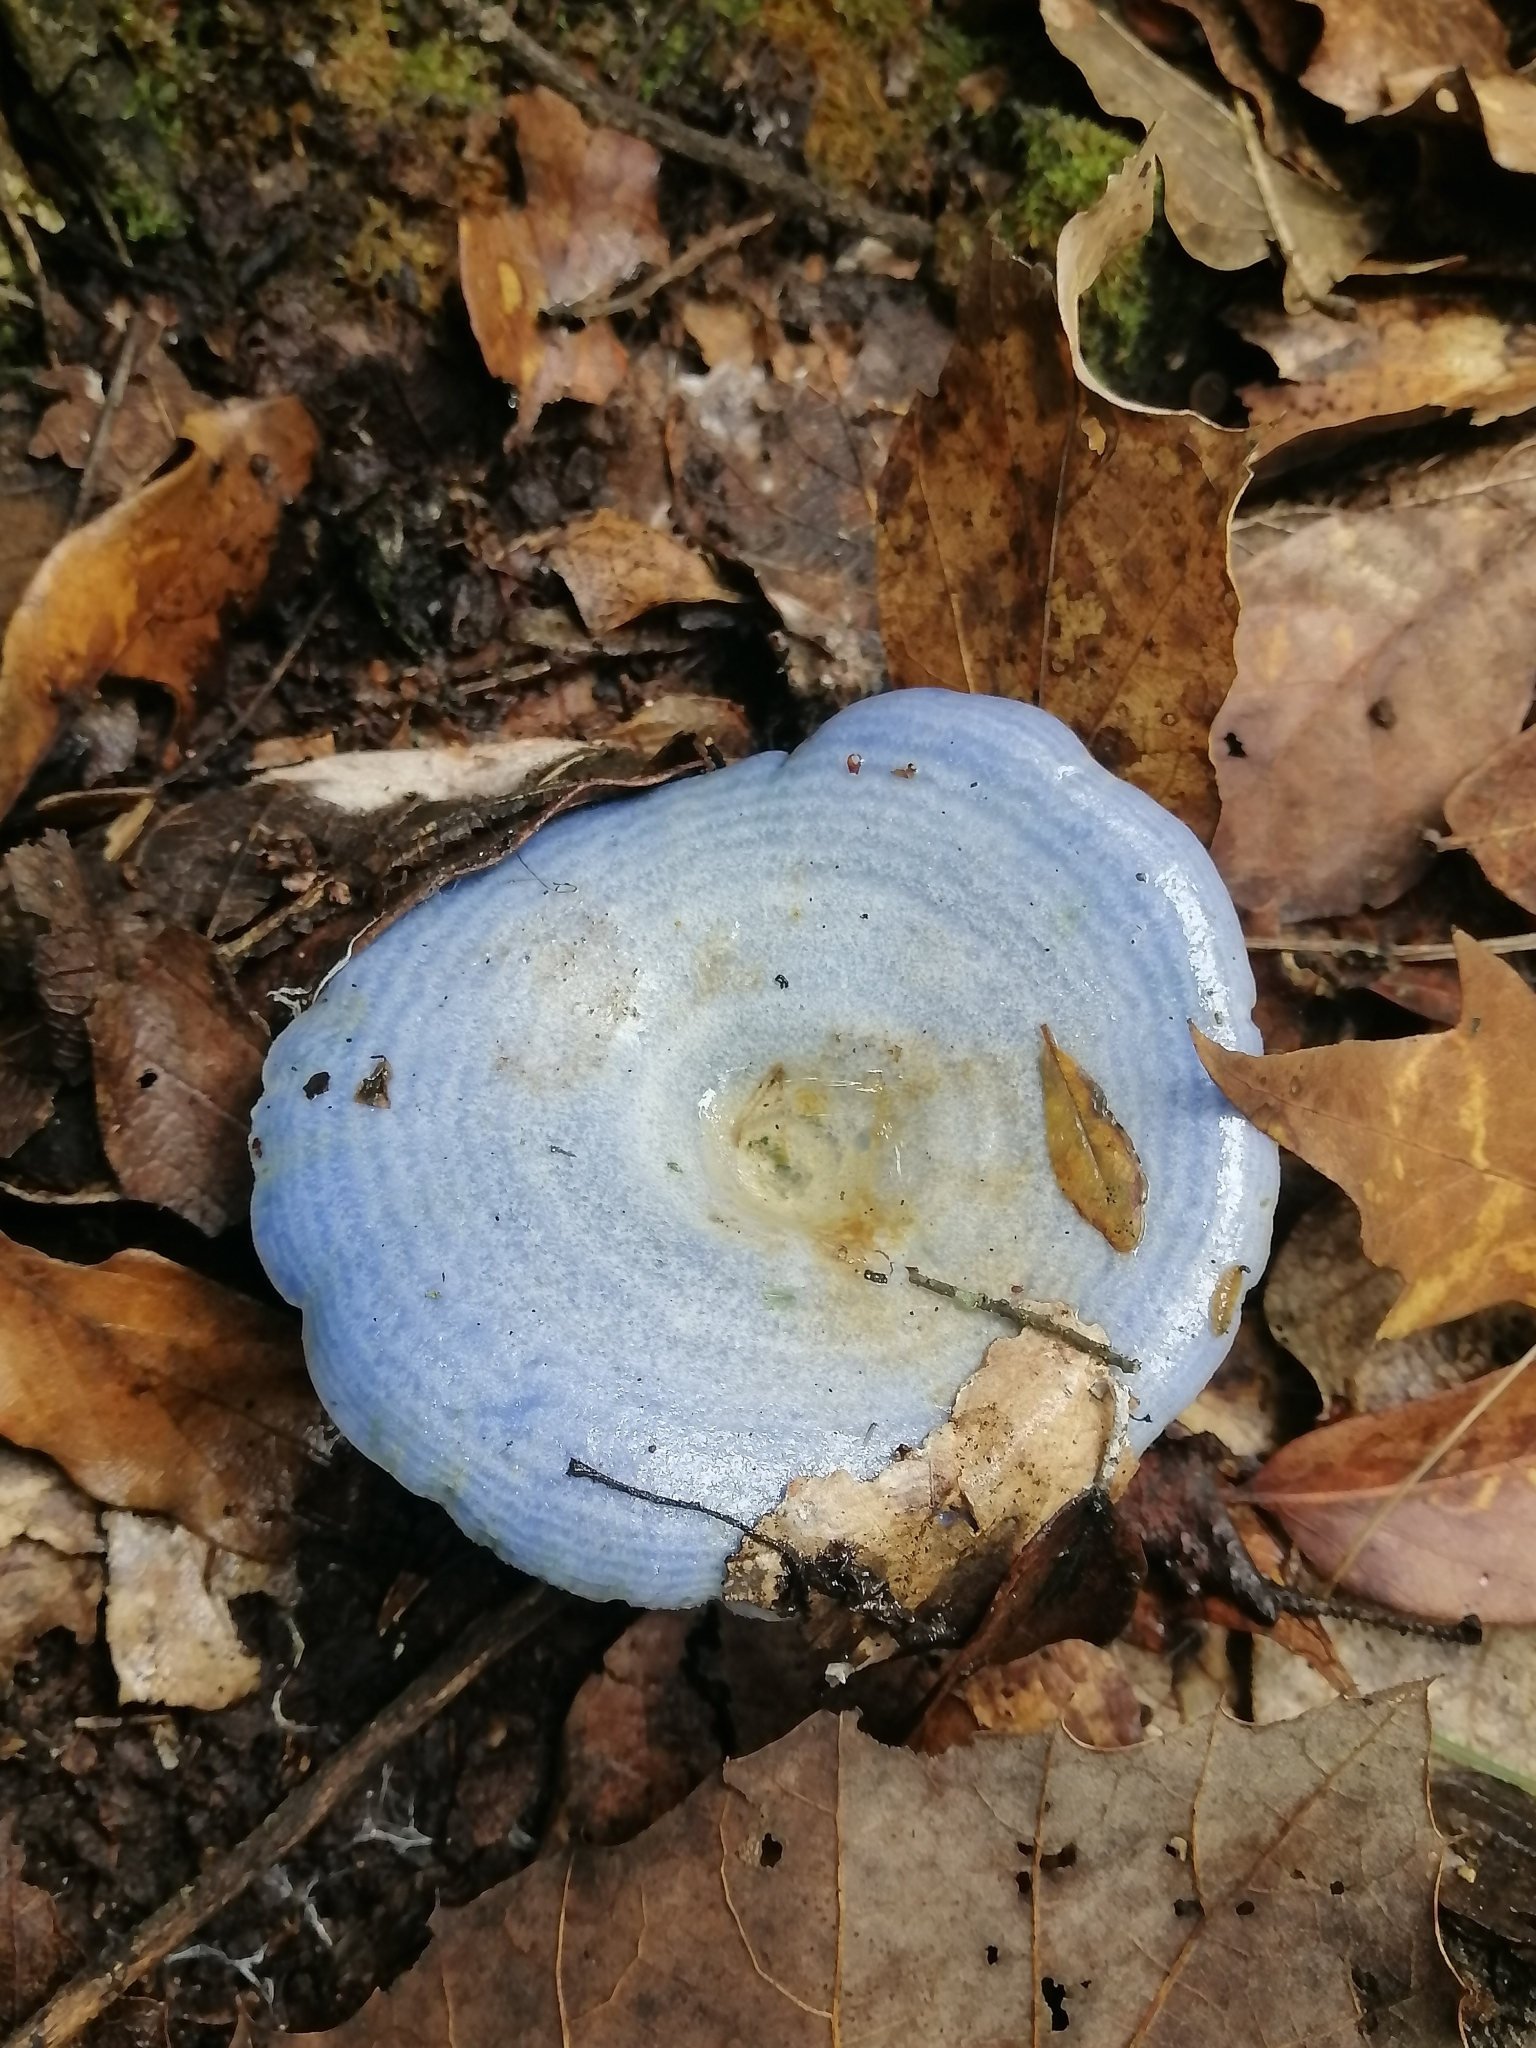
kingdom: Fungi
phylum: Basidiomycota
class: Agaricomycetes
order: Russulales
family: Russulaceae
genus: Lactarius
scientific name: Lactarius indigo
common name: Indigo milk cap
